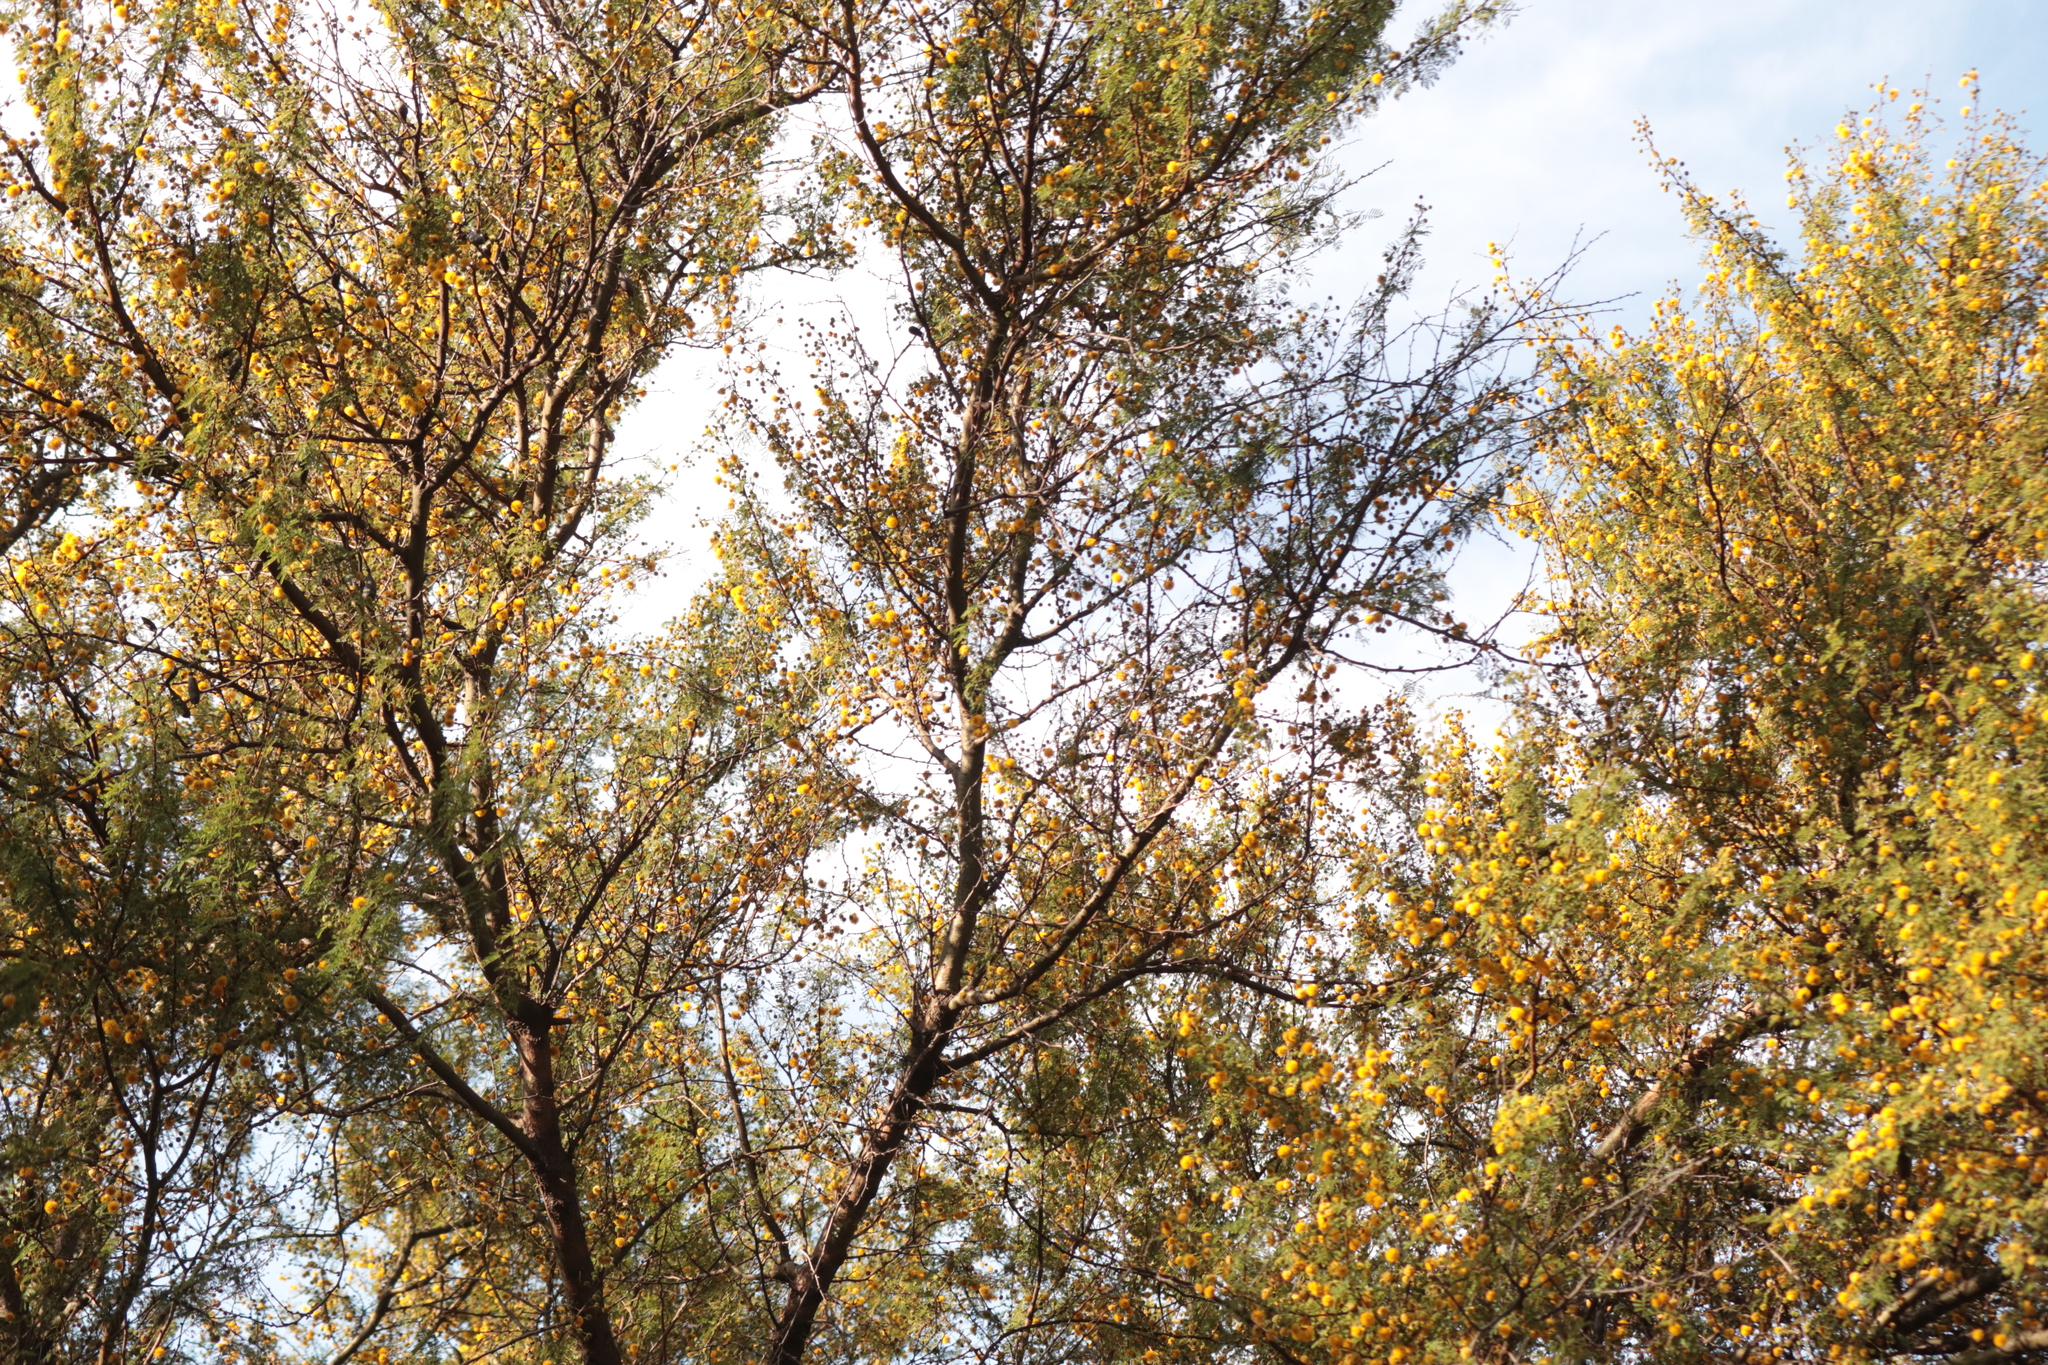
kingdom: Plantae
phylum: Tracheophyta
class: Magnoliopsida
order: Fabales
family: Fabaceae
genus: Vachellia
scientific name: Vachellia caven
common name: Roman cassie
